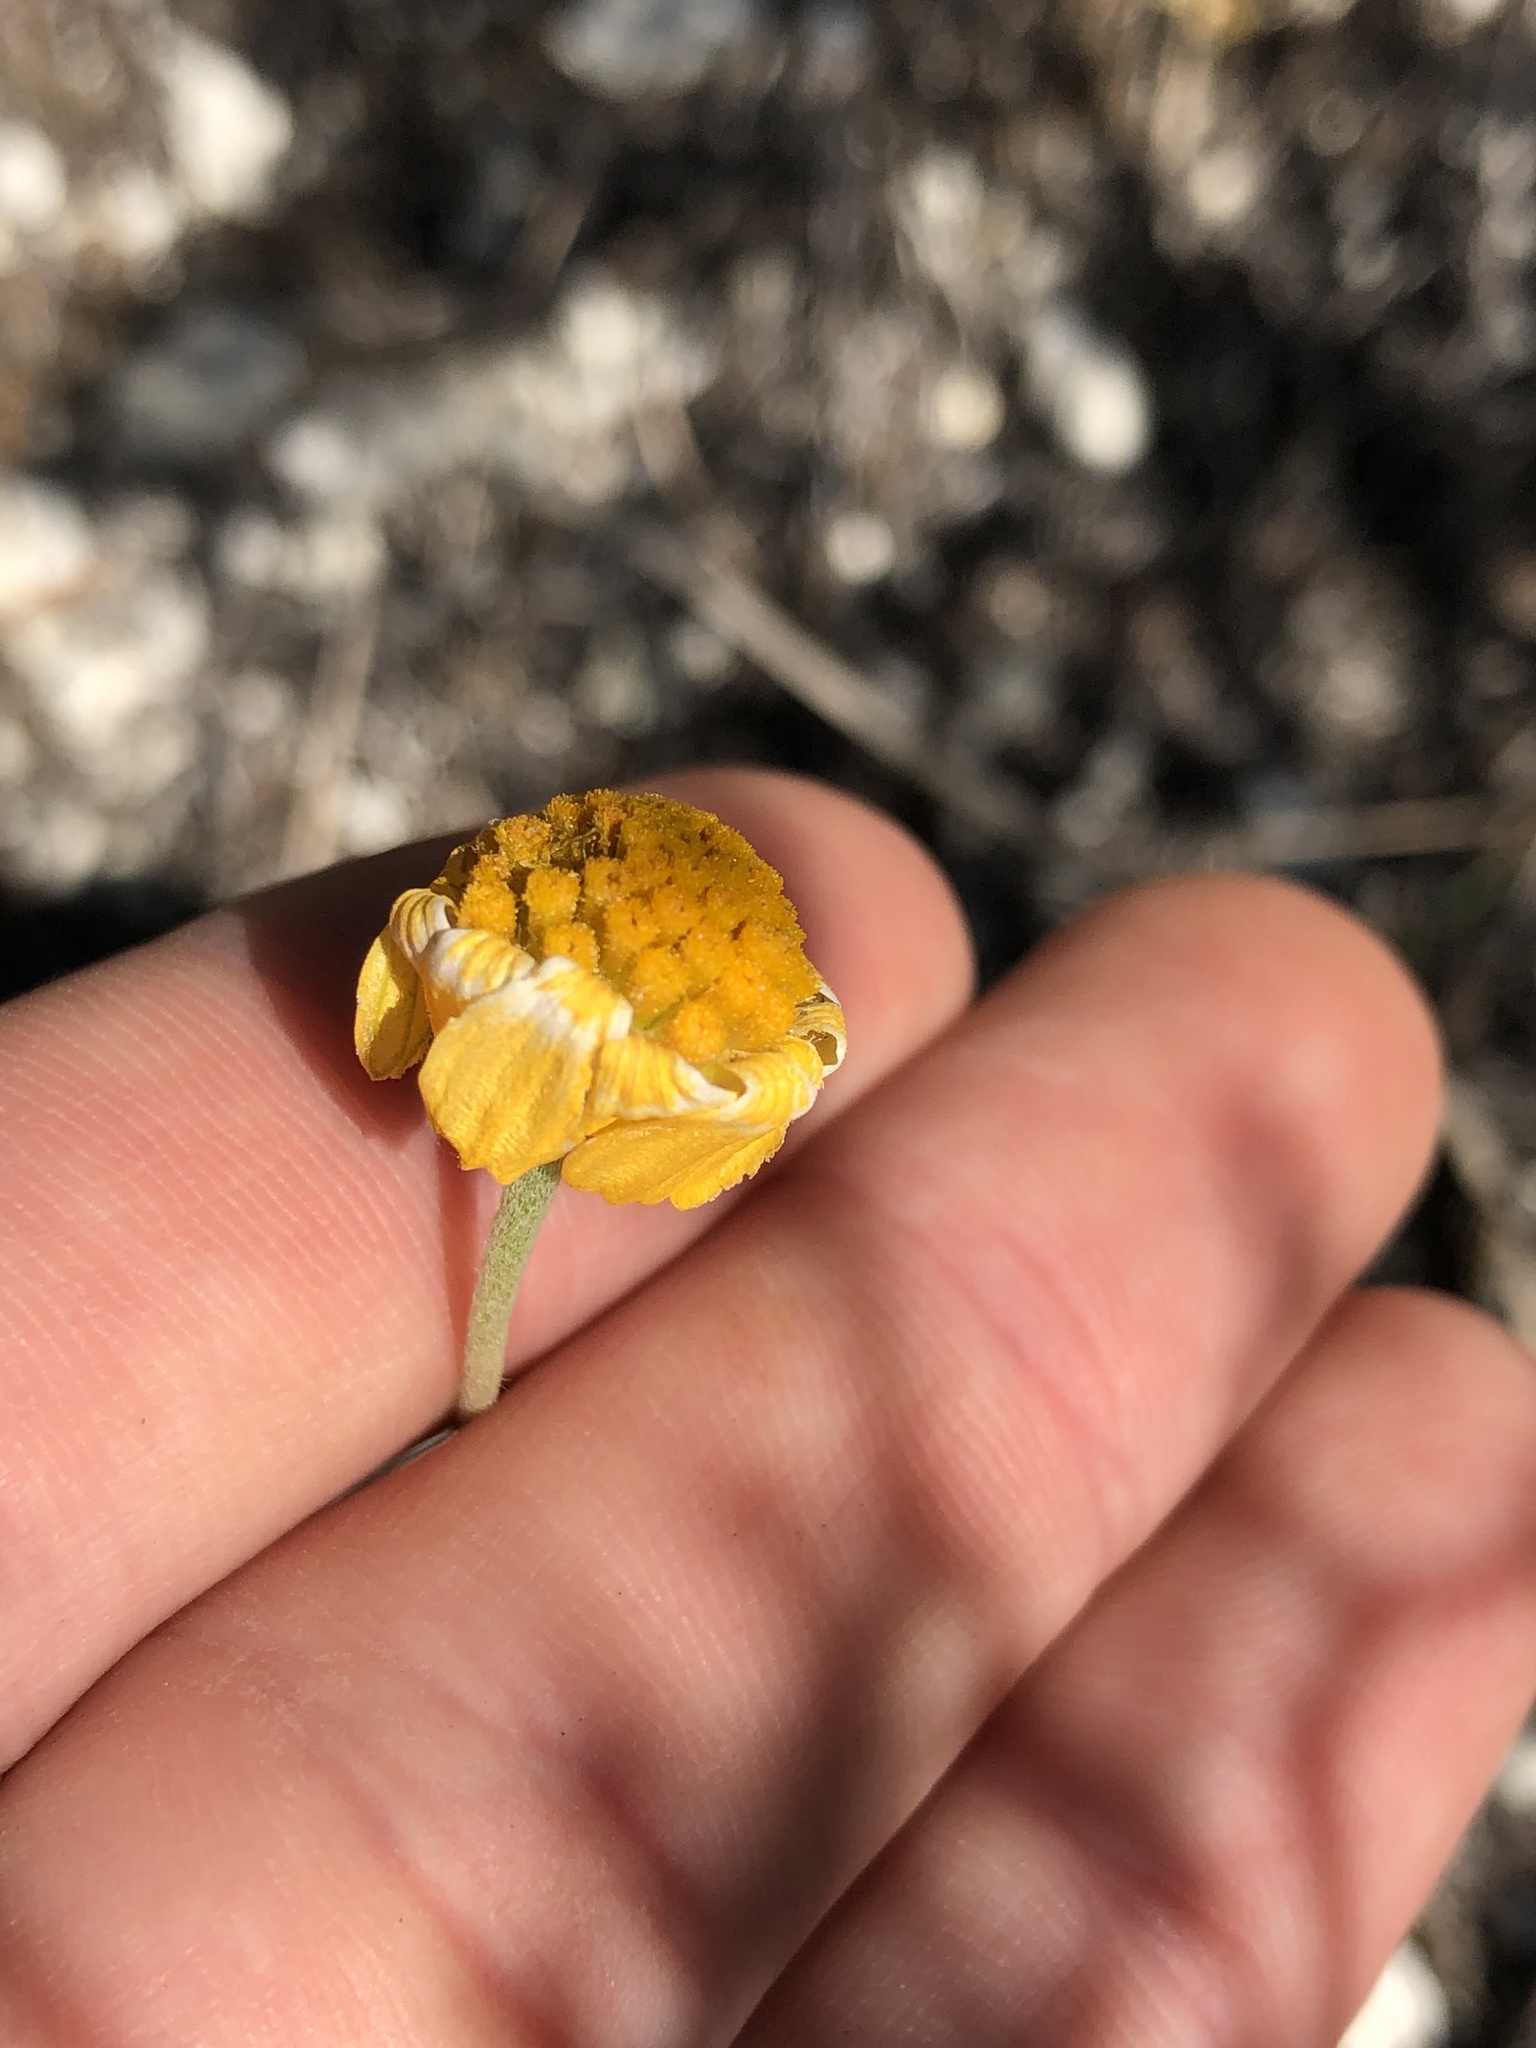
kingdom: Plantae
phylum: Tracheophyta
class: Magnoliopsida
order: Asterales
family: Asteraceae
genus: Tetraneuris
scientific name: Tetraneuris scaposa
